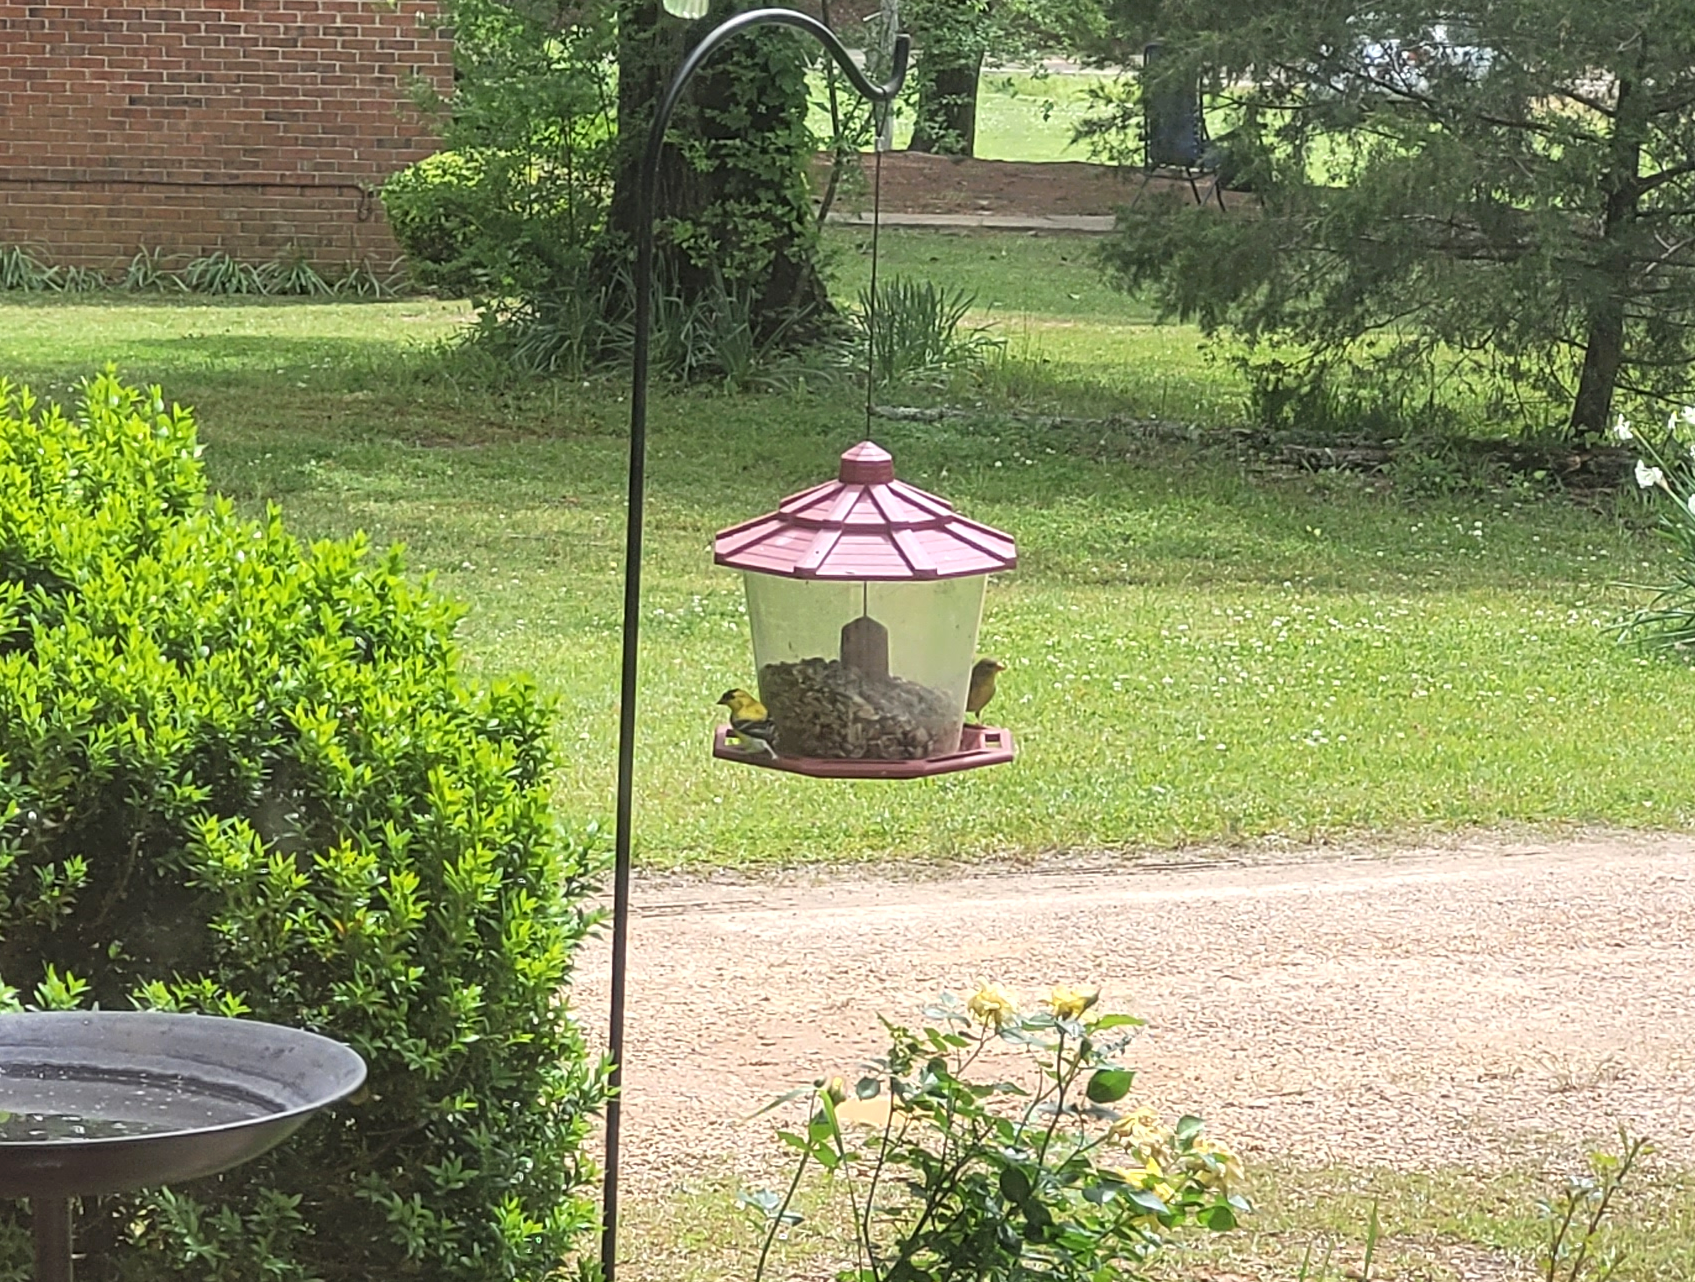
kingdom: Animalia
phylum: Chordata
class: Aves
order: Passeriformes
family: Fringillidae
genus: Spinus
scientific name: Spinus tristis
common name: American goldfinch
